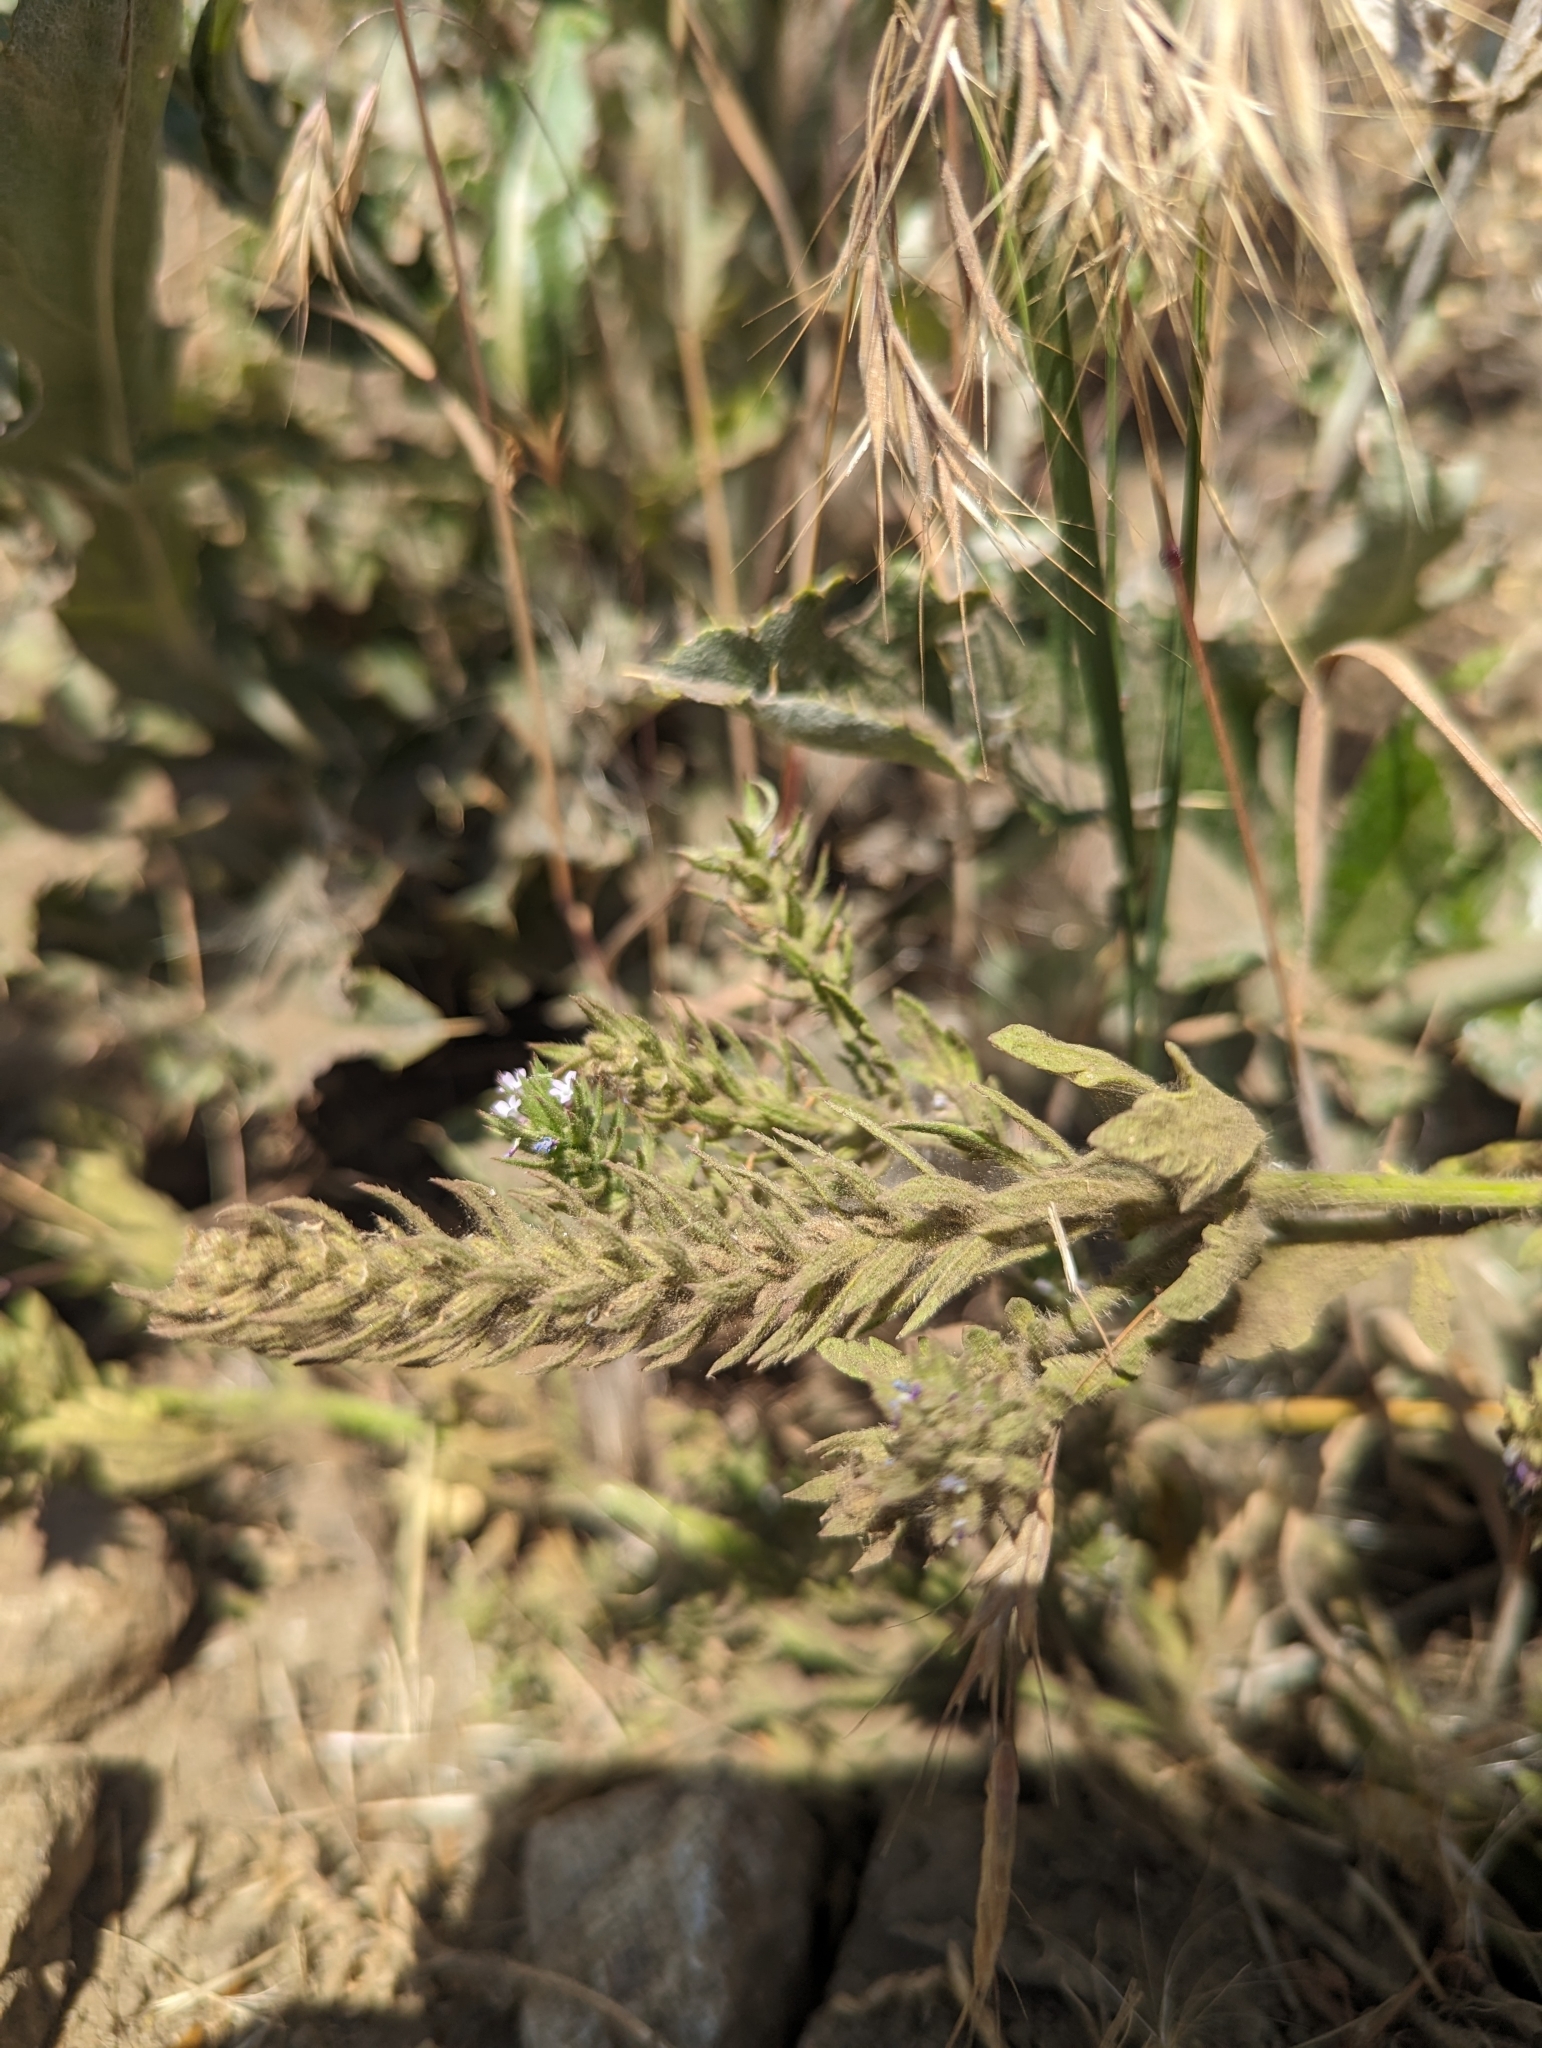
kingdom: Plantae
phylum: Tracheophyta
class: Magnoliopsida
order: Lamiales
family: Verbenaceae
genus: Verbena
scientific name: Verbena bracteata
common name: Bracted vervain
